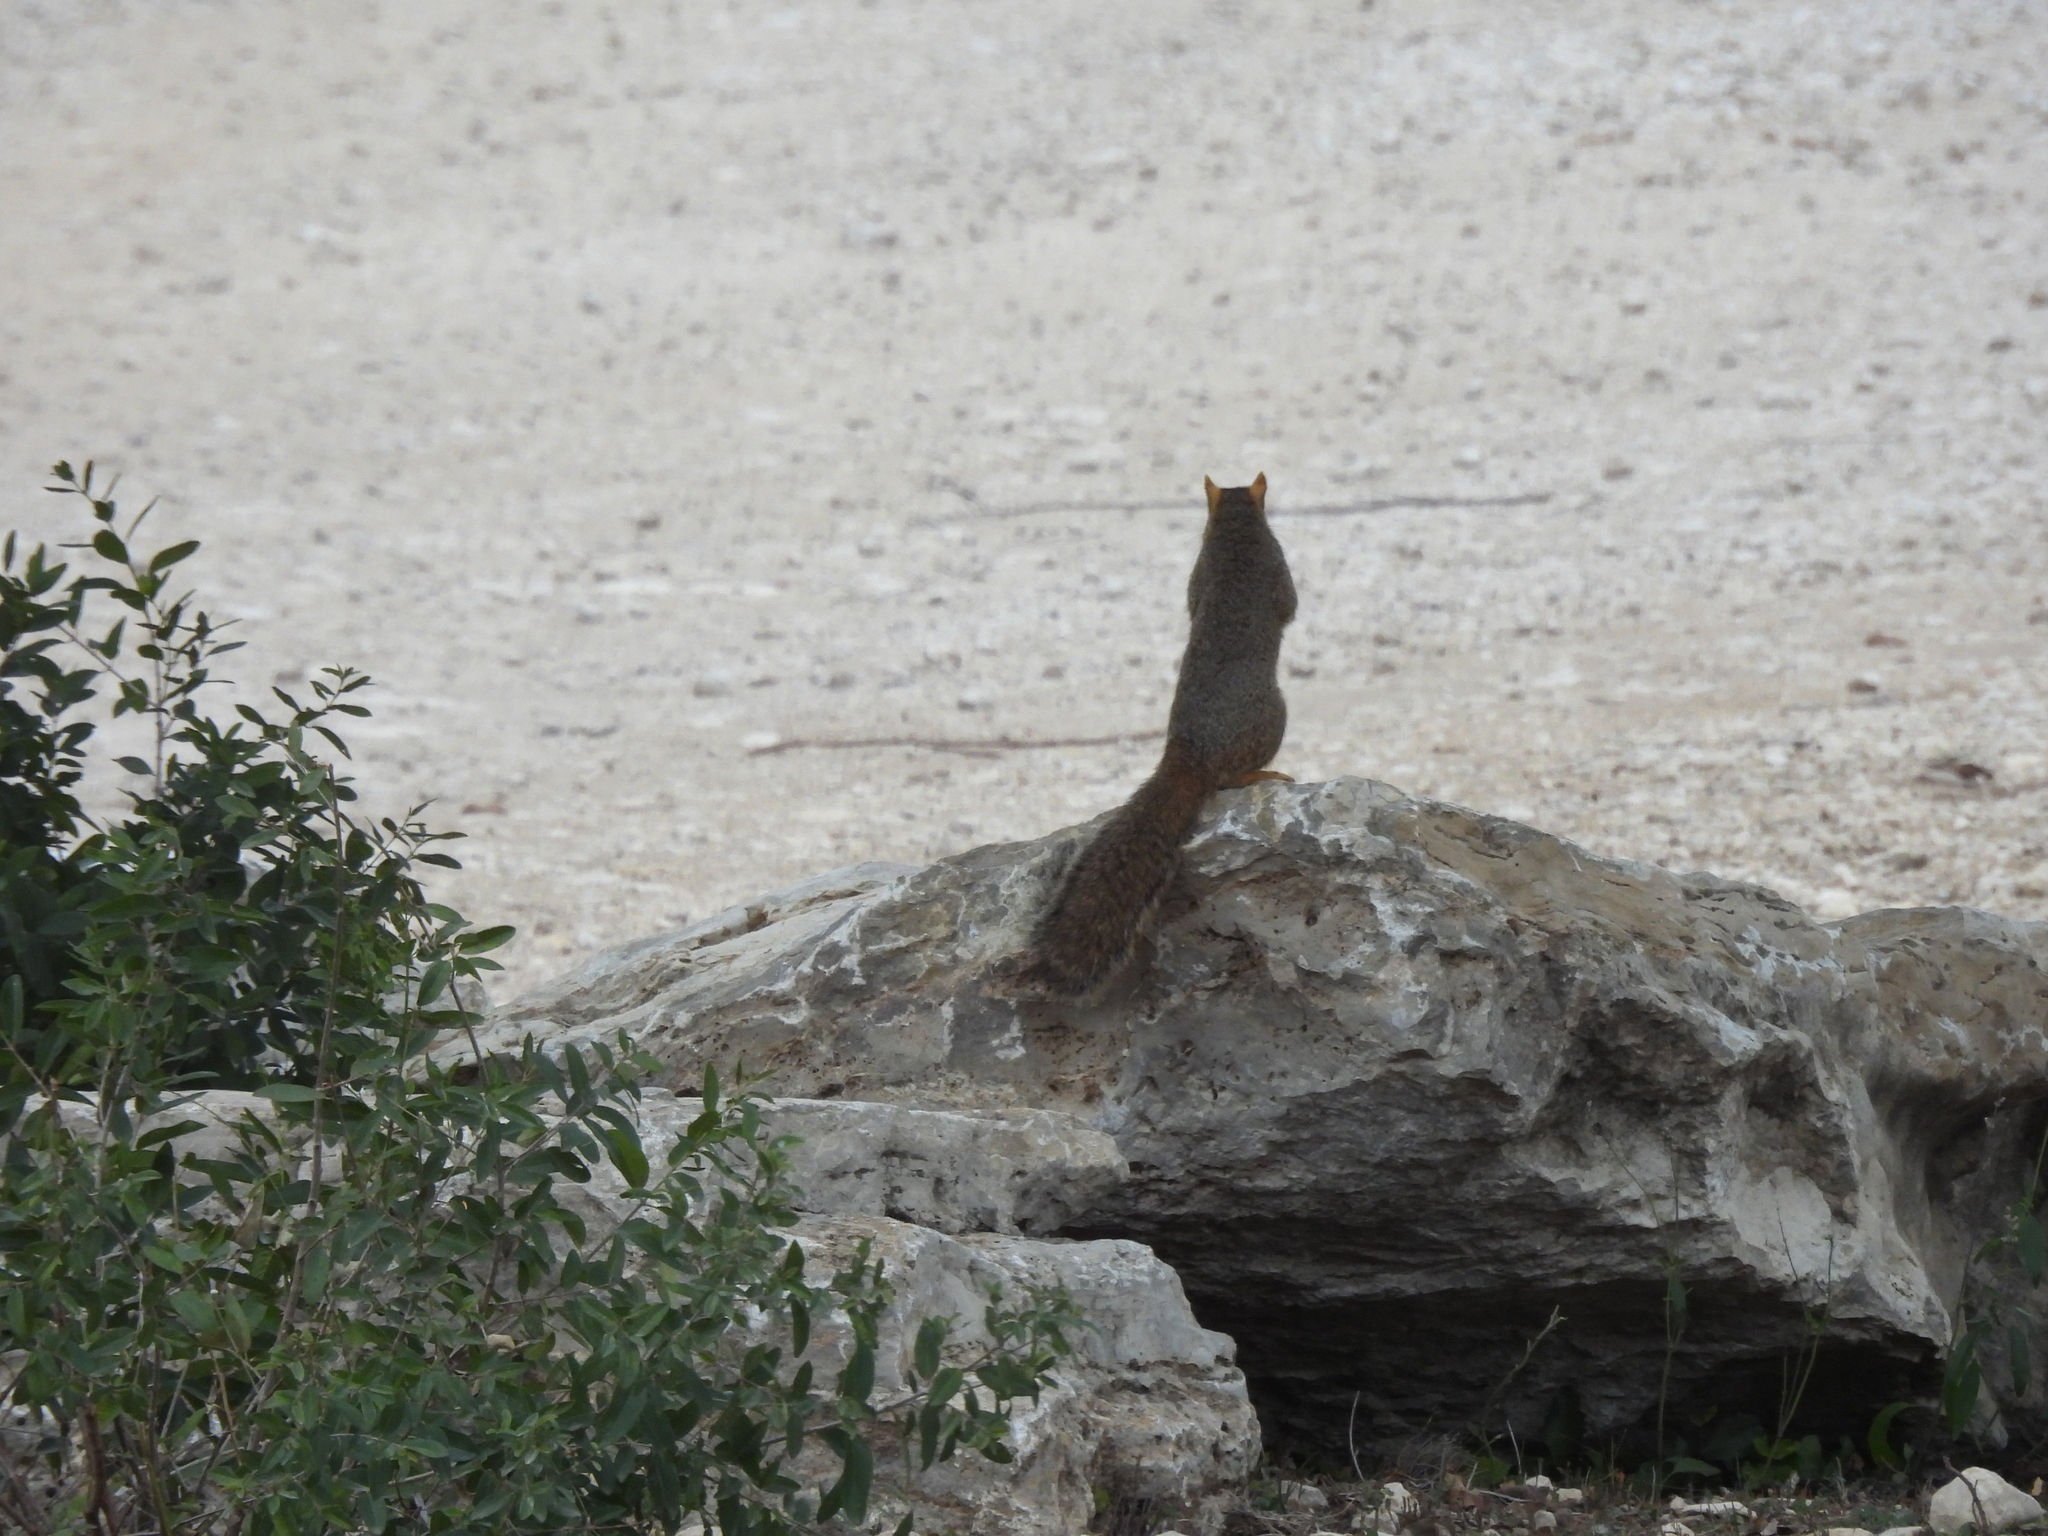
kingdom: Animalia
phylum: Chordata
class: Mammalia
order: Rodentia
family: Sciuridae
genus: Sciurus
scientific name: Sciurus niger
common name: Fox squirrel
